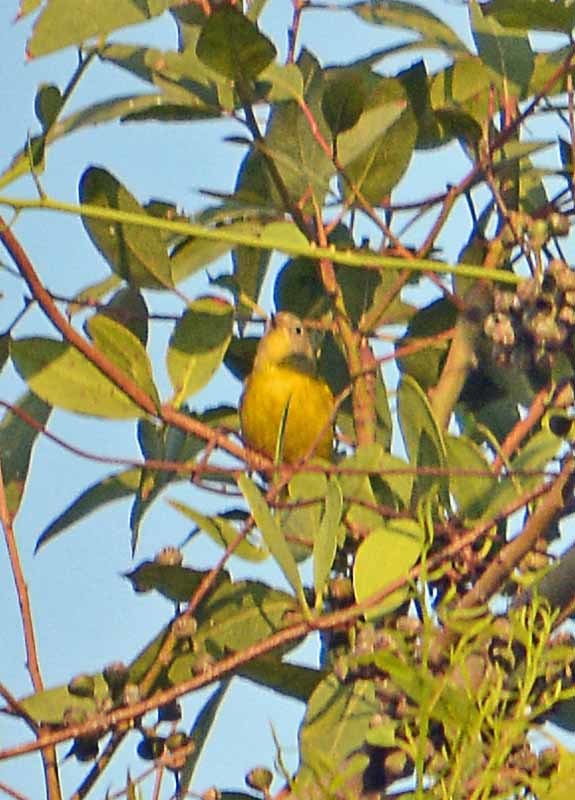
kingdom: Animalia
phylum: Chordata
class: Aves
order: Passeriformes
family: Parulidae
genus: Leiothlypis
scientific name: Leiothlypis ruficapilla
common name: Nashville warbler
